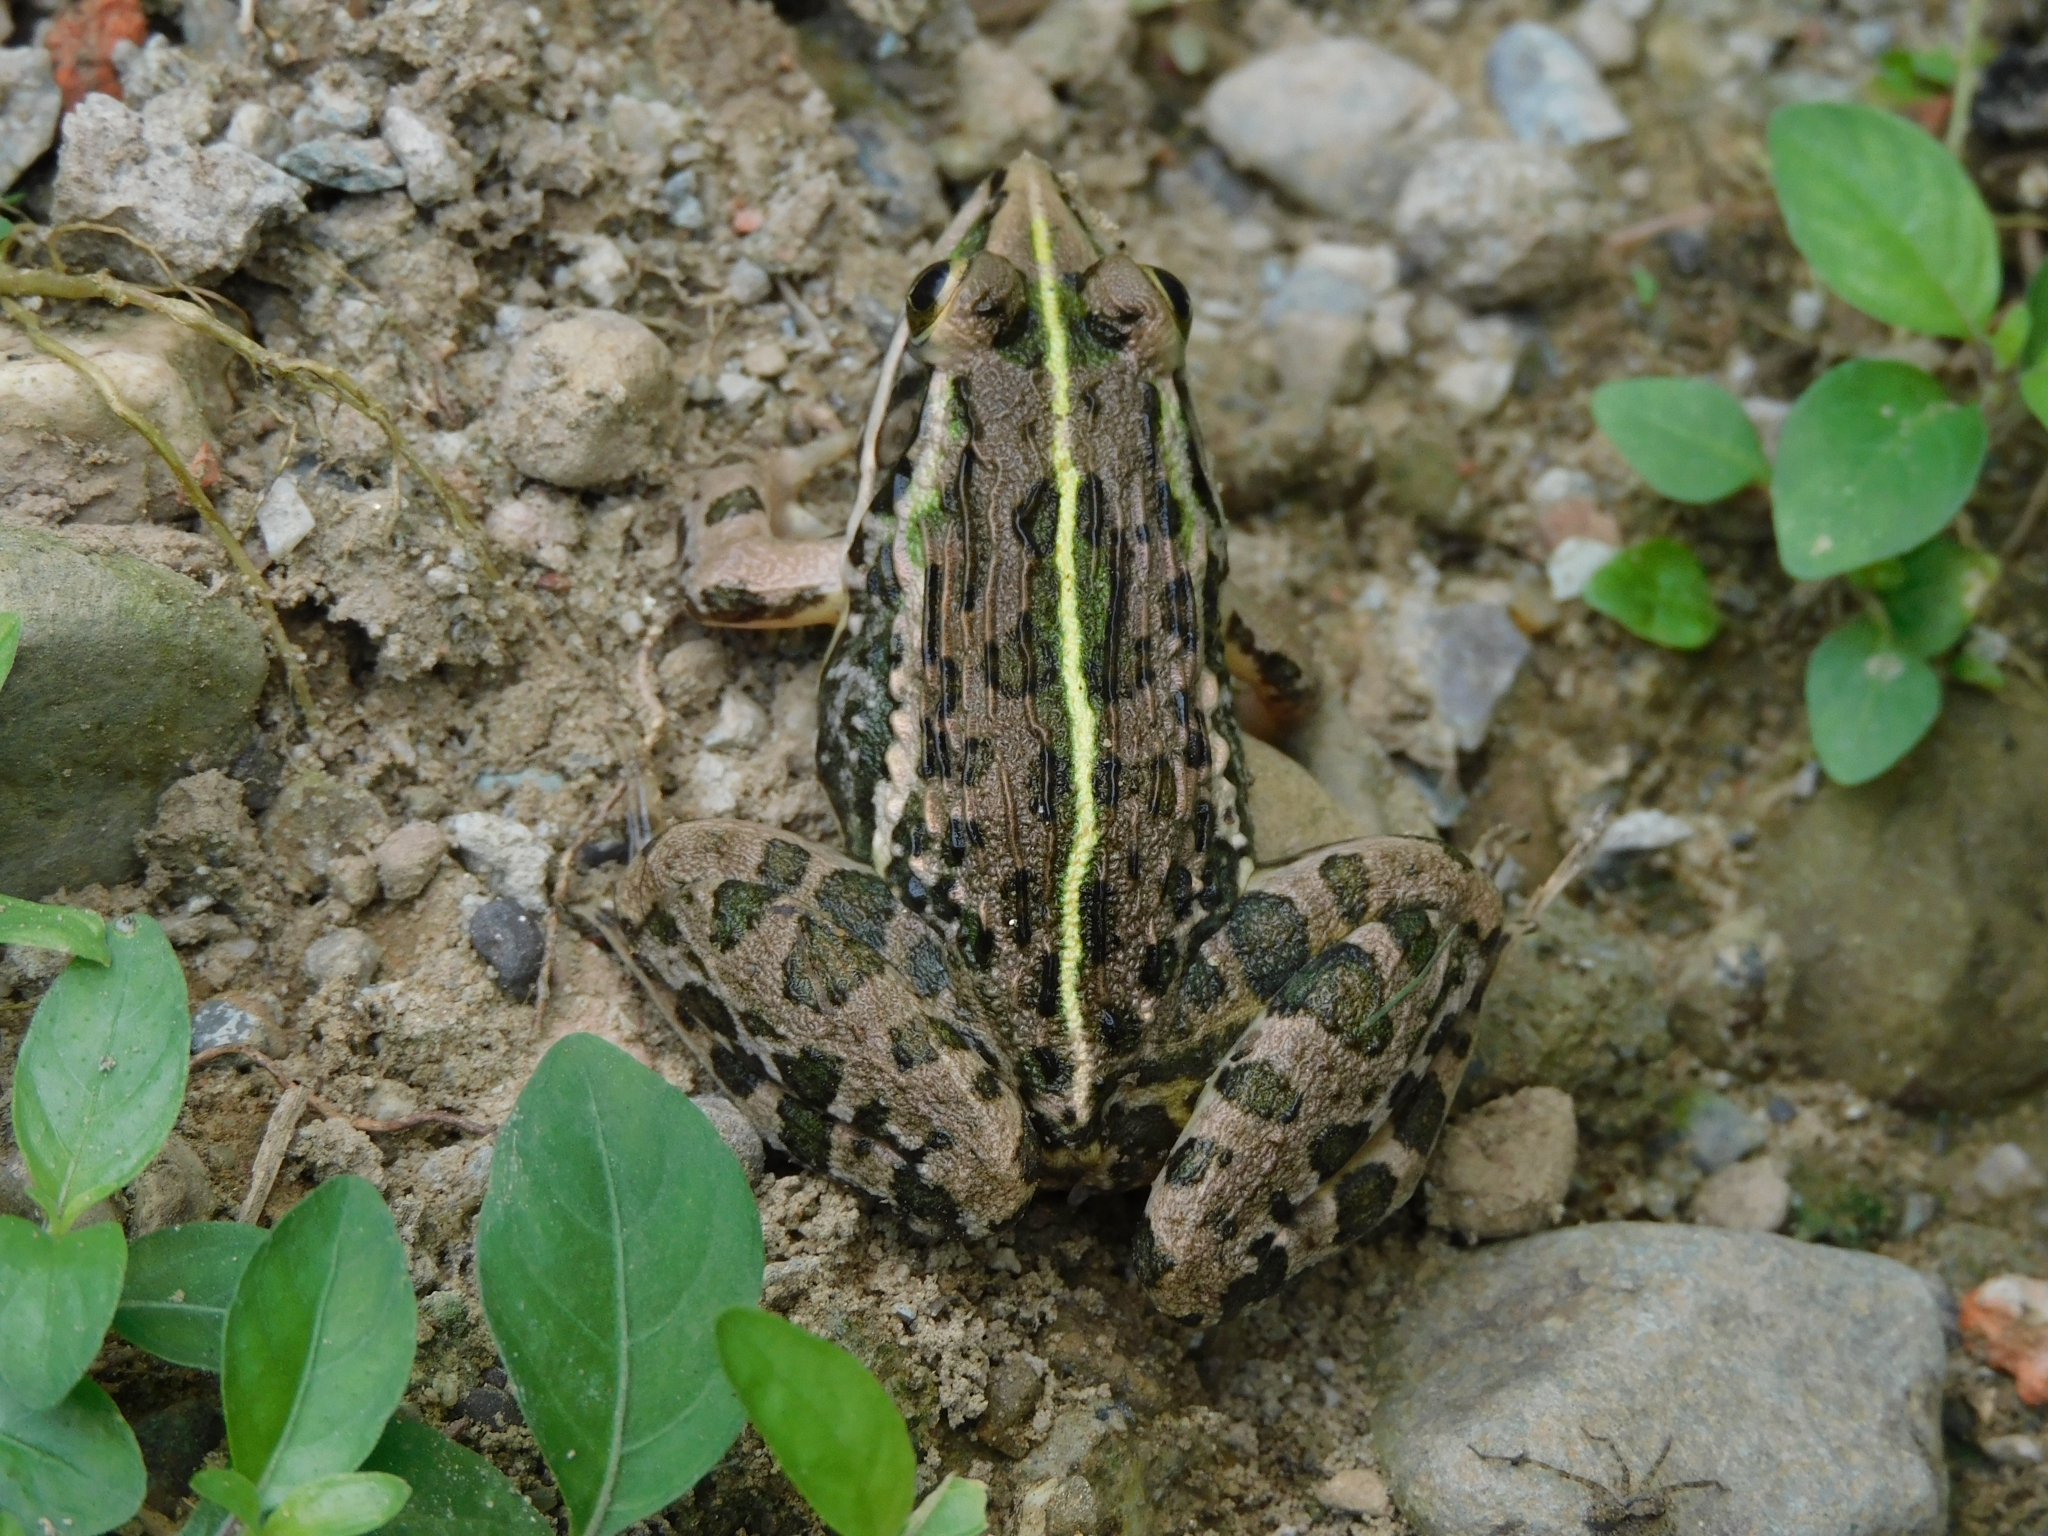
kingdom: Animalia
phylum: Chordata
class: Amphibia
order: Anura
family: Dicroglossidae
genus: Hoplobatrachus
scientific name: Hoplobatrachus tigerinus
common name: Indian bullfrog
